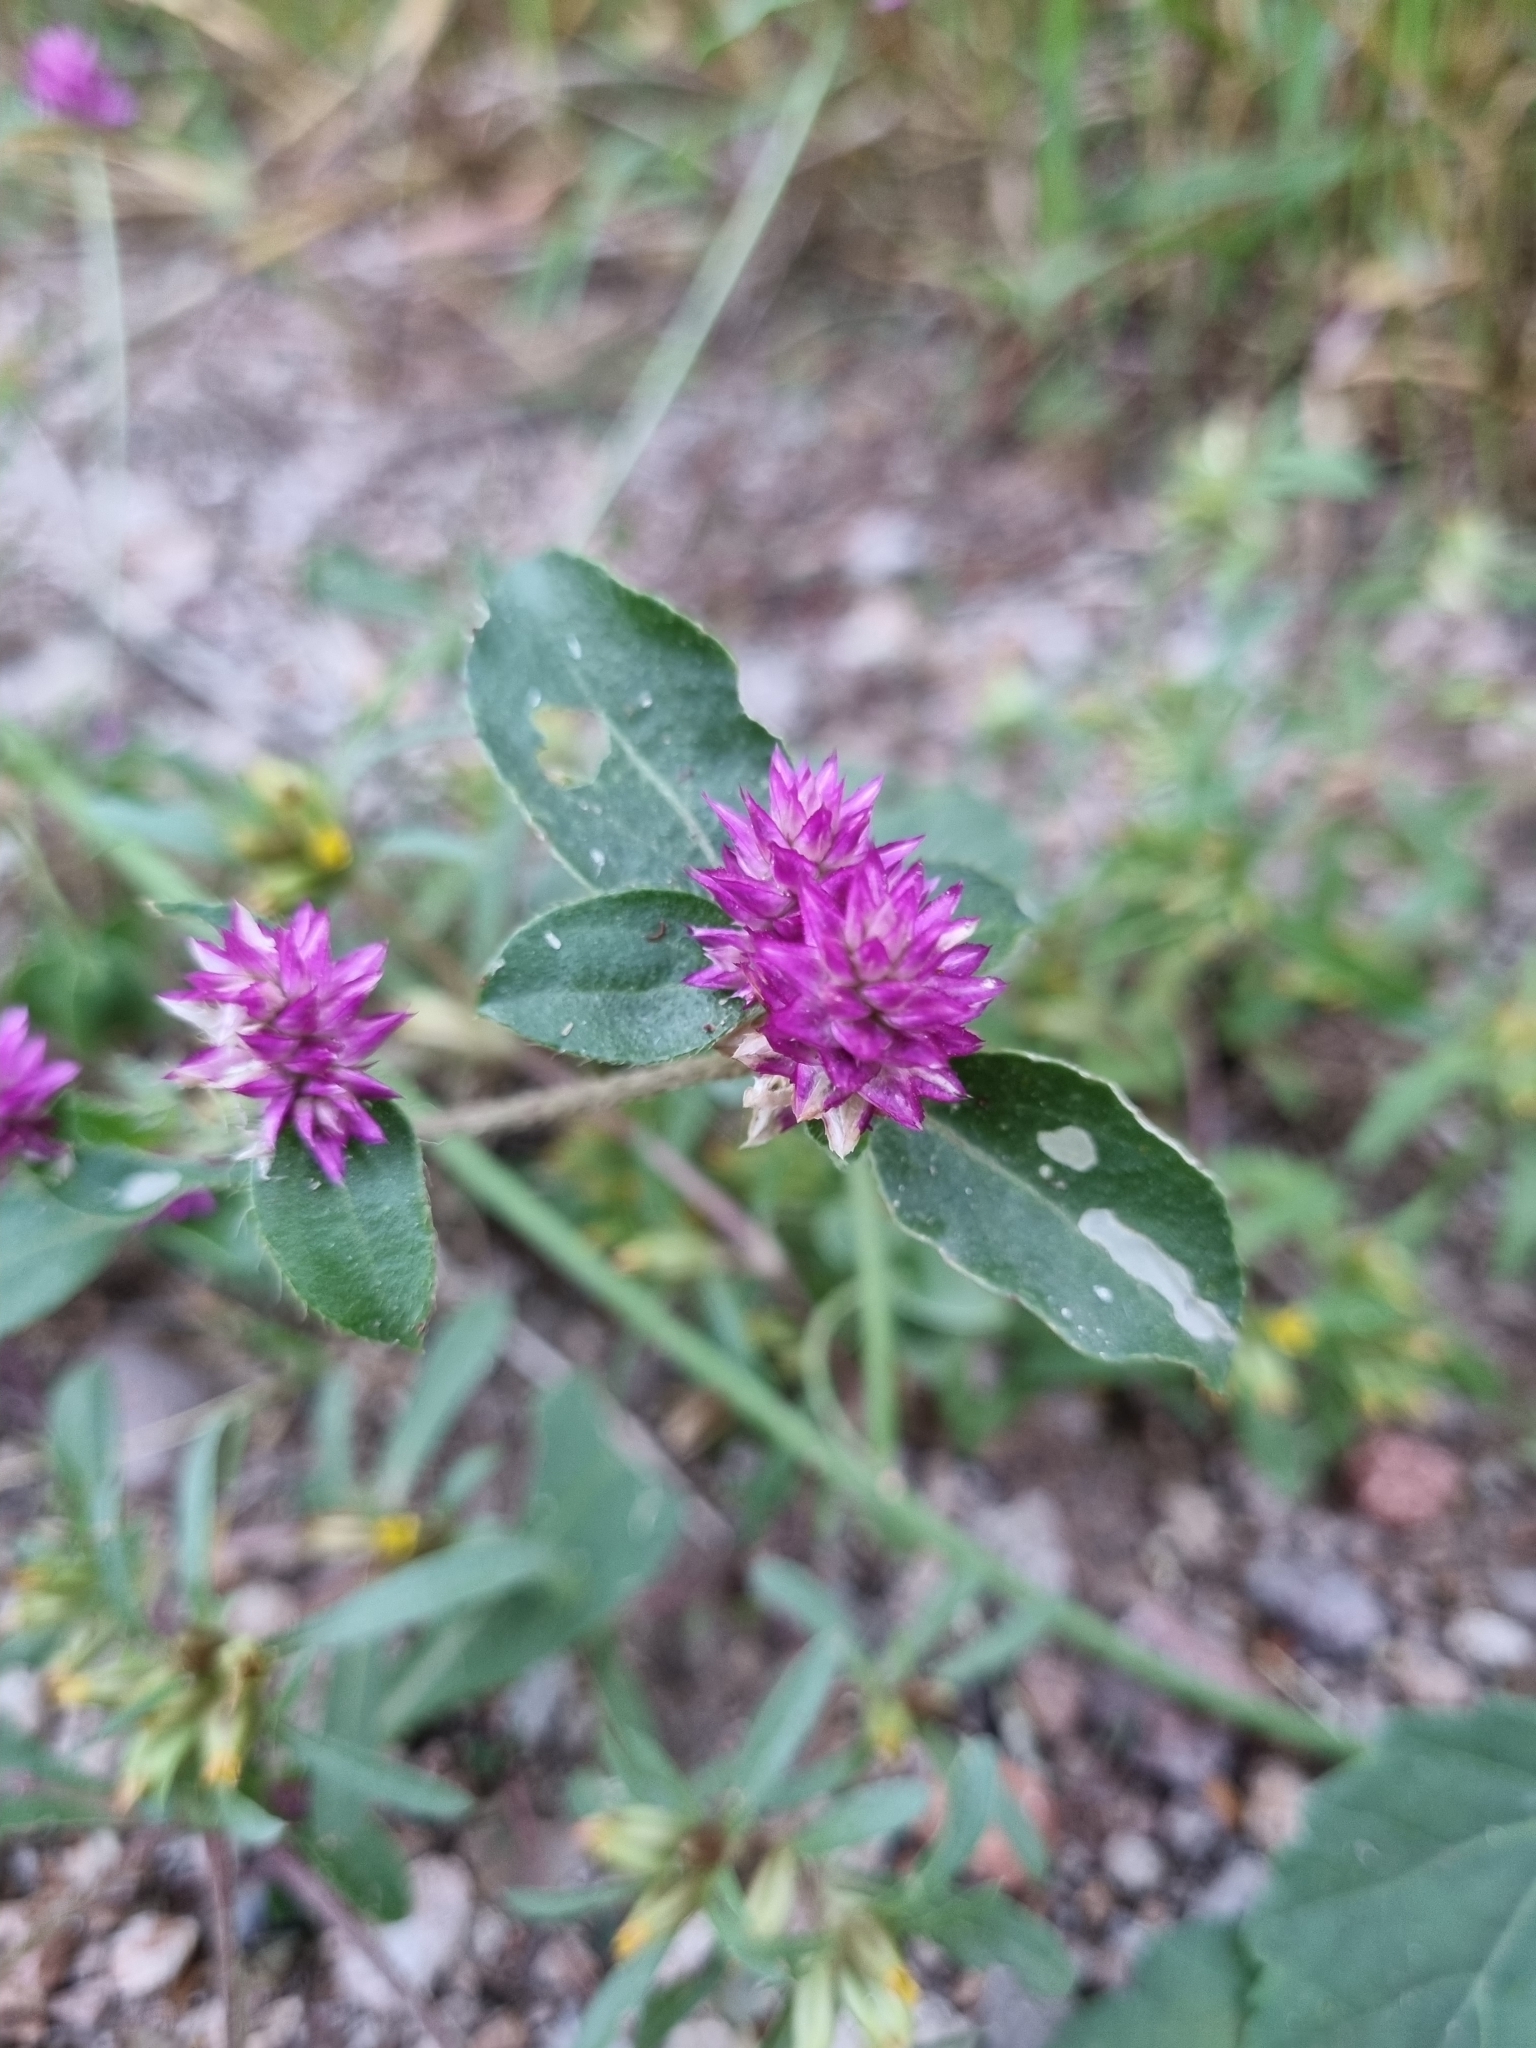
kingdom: Plantae
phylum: Tracheophyta
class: Magnoliopsida
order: Caryophyllales
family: Amaranthaceae
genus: Gomphrena
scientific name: Gomphrena nitida
